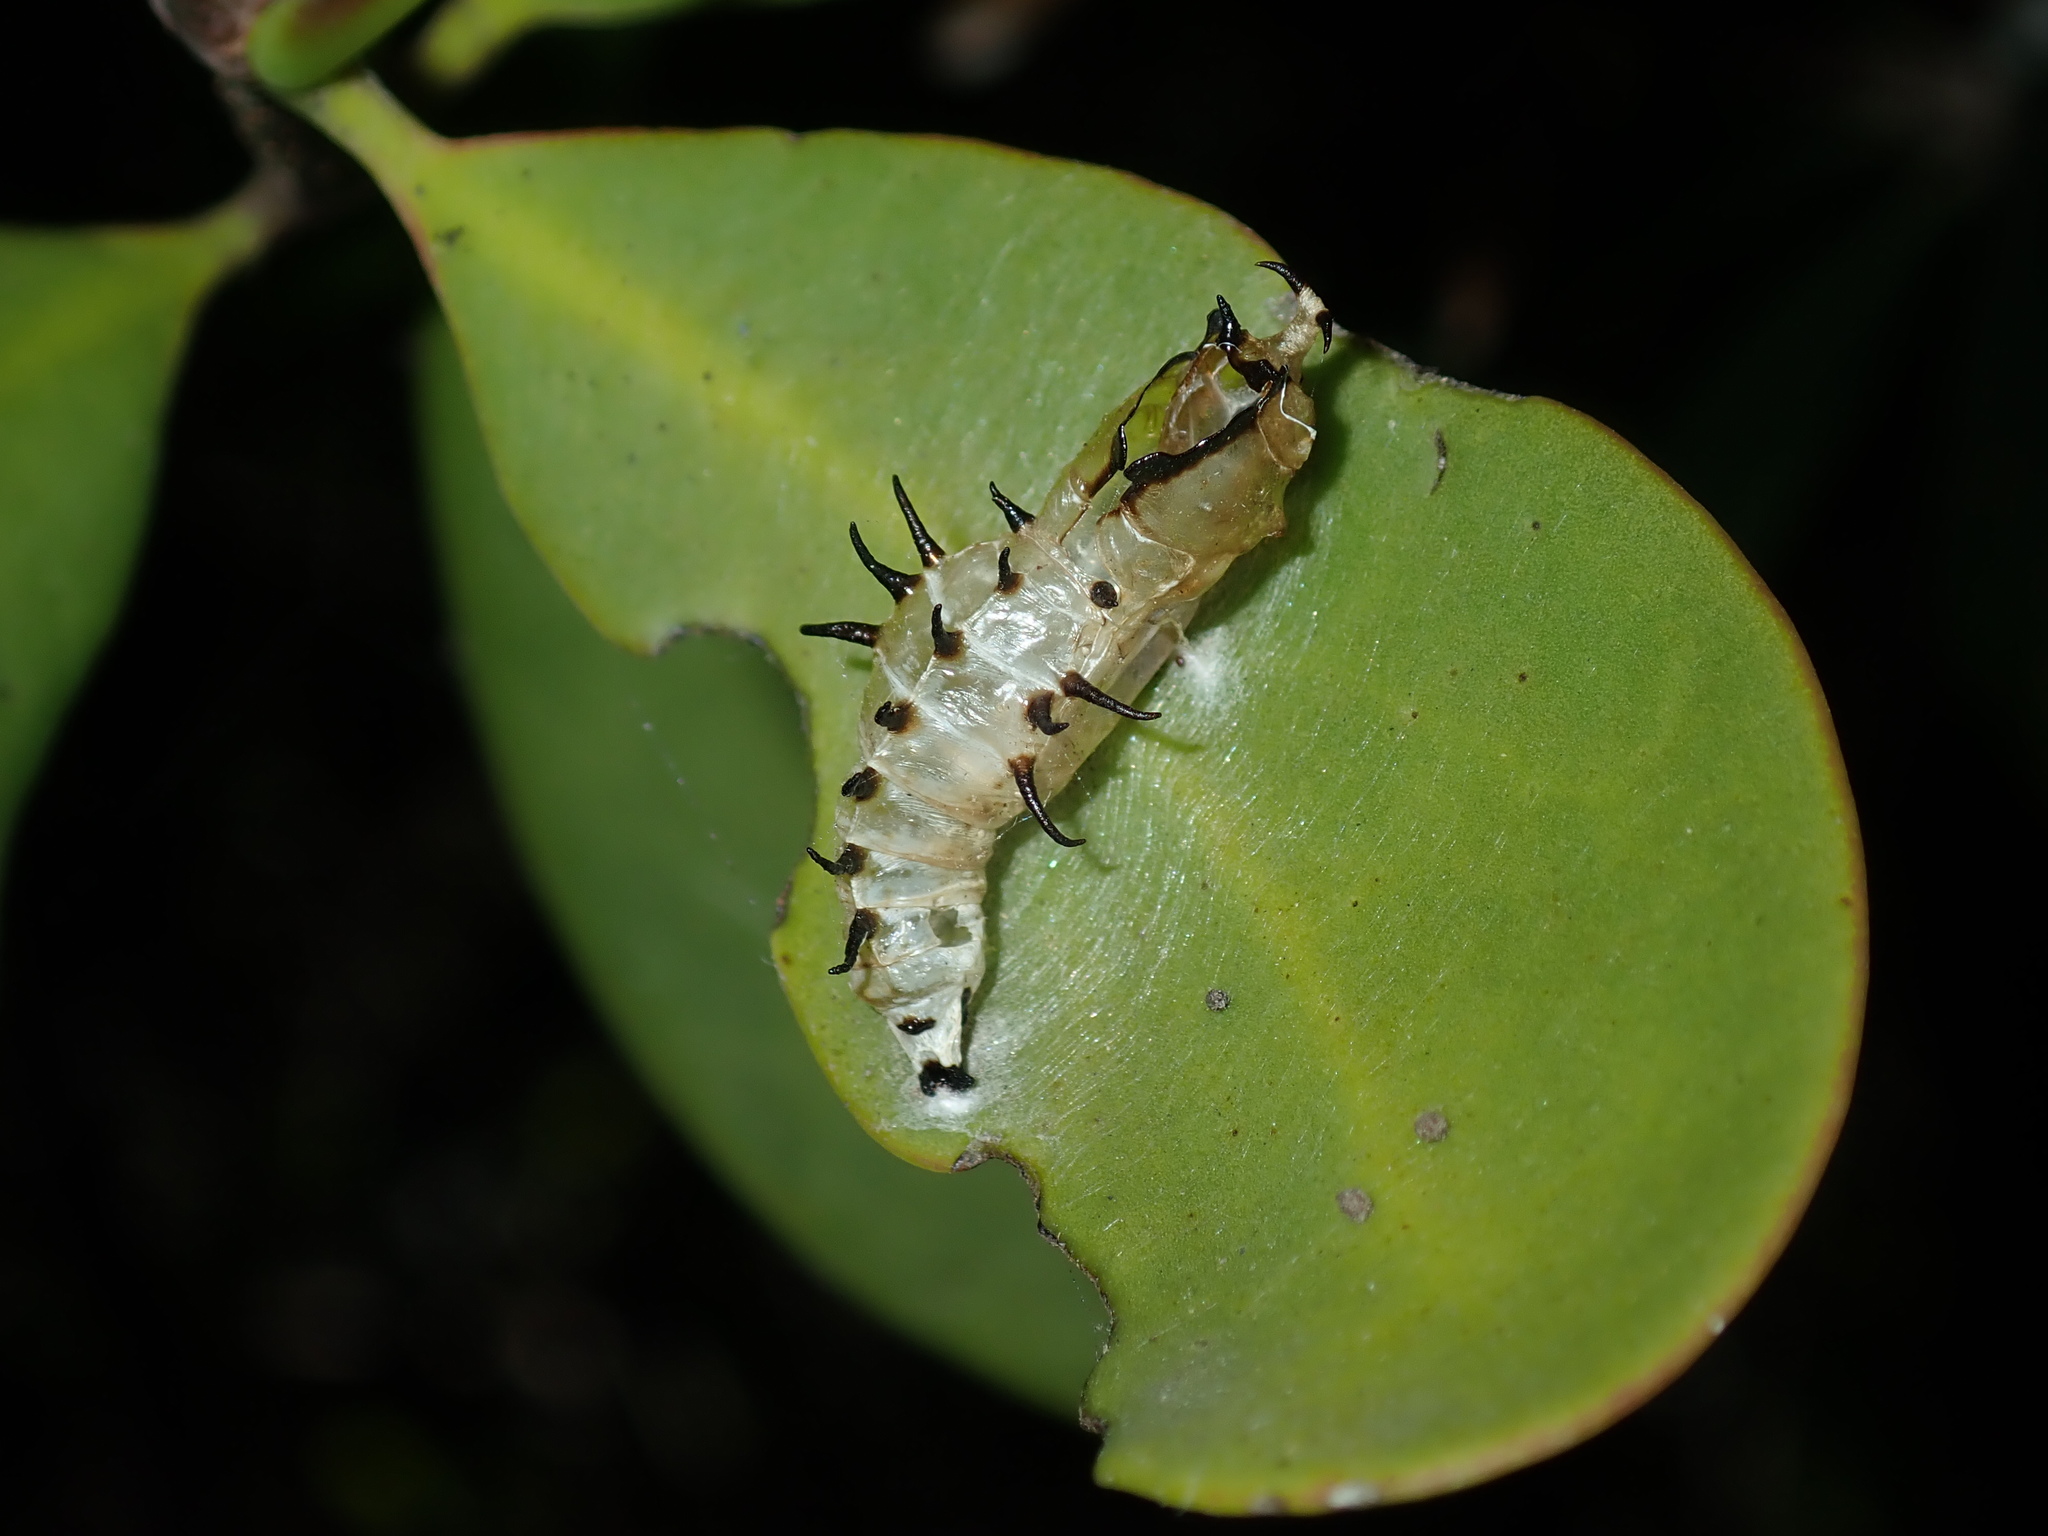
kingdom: Animalia
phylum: Arthropoda
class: Insecta
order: Lepidoptera
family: Pieridae
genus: Delias
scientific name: Delias nigrina
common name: Black jezebel
